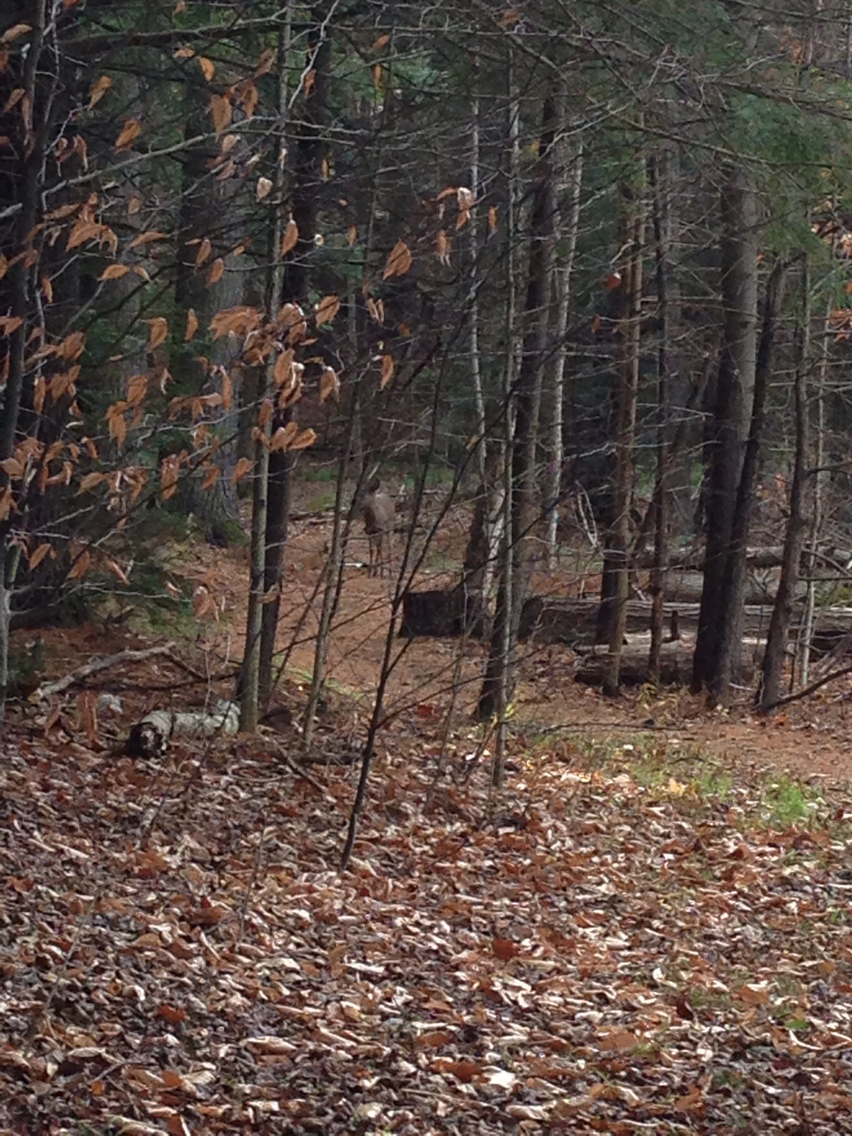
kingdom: Animalia
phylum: Chordata
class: Mammalia
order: Artiodactyla
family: Cervidae
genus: Odocoileus
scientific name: Odocoileus virginianus
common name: White-tailed deer
